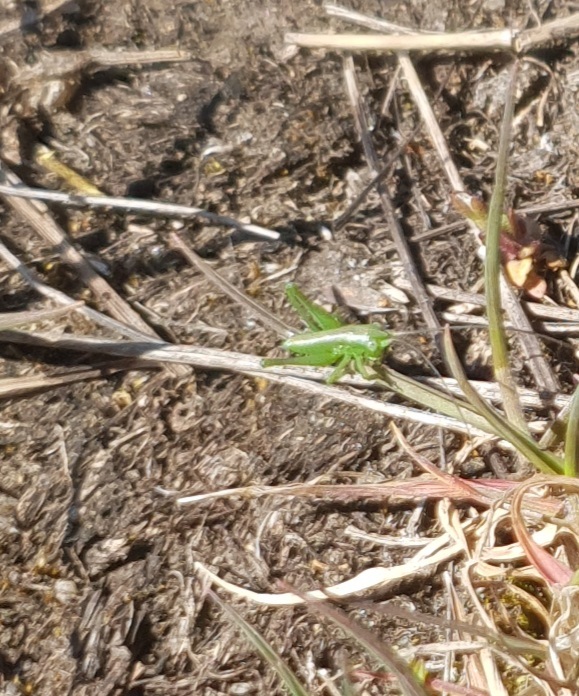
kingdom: Animalia
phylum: Arthropoda
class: Insecta
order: Orthoptera
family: Tettigoniidae
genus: Tettigonia
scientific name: Tettigonia
